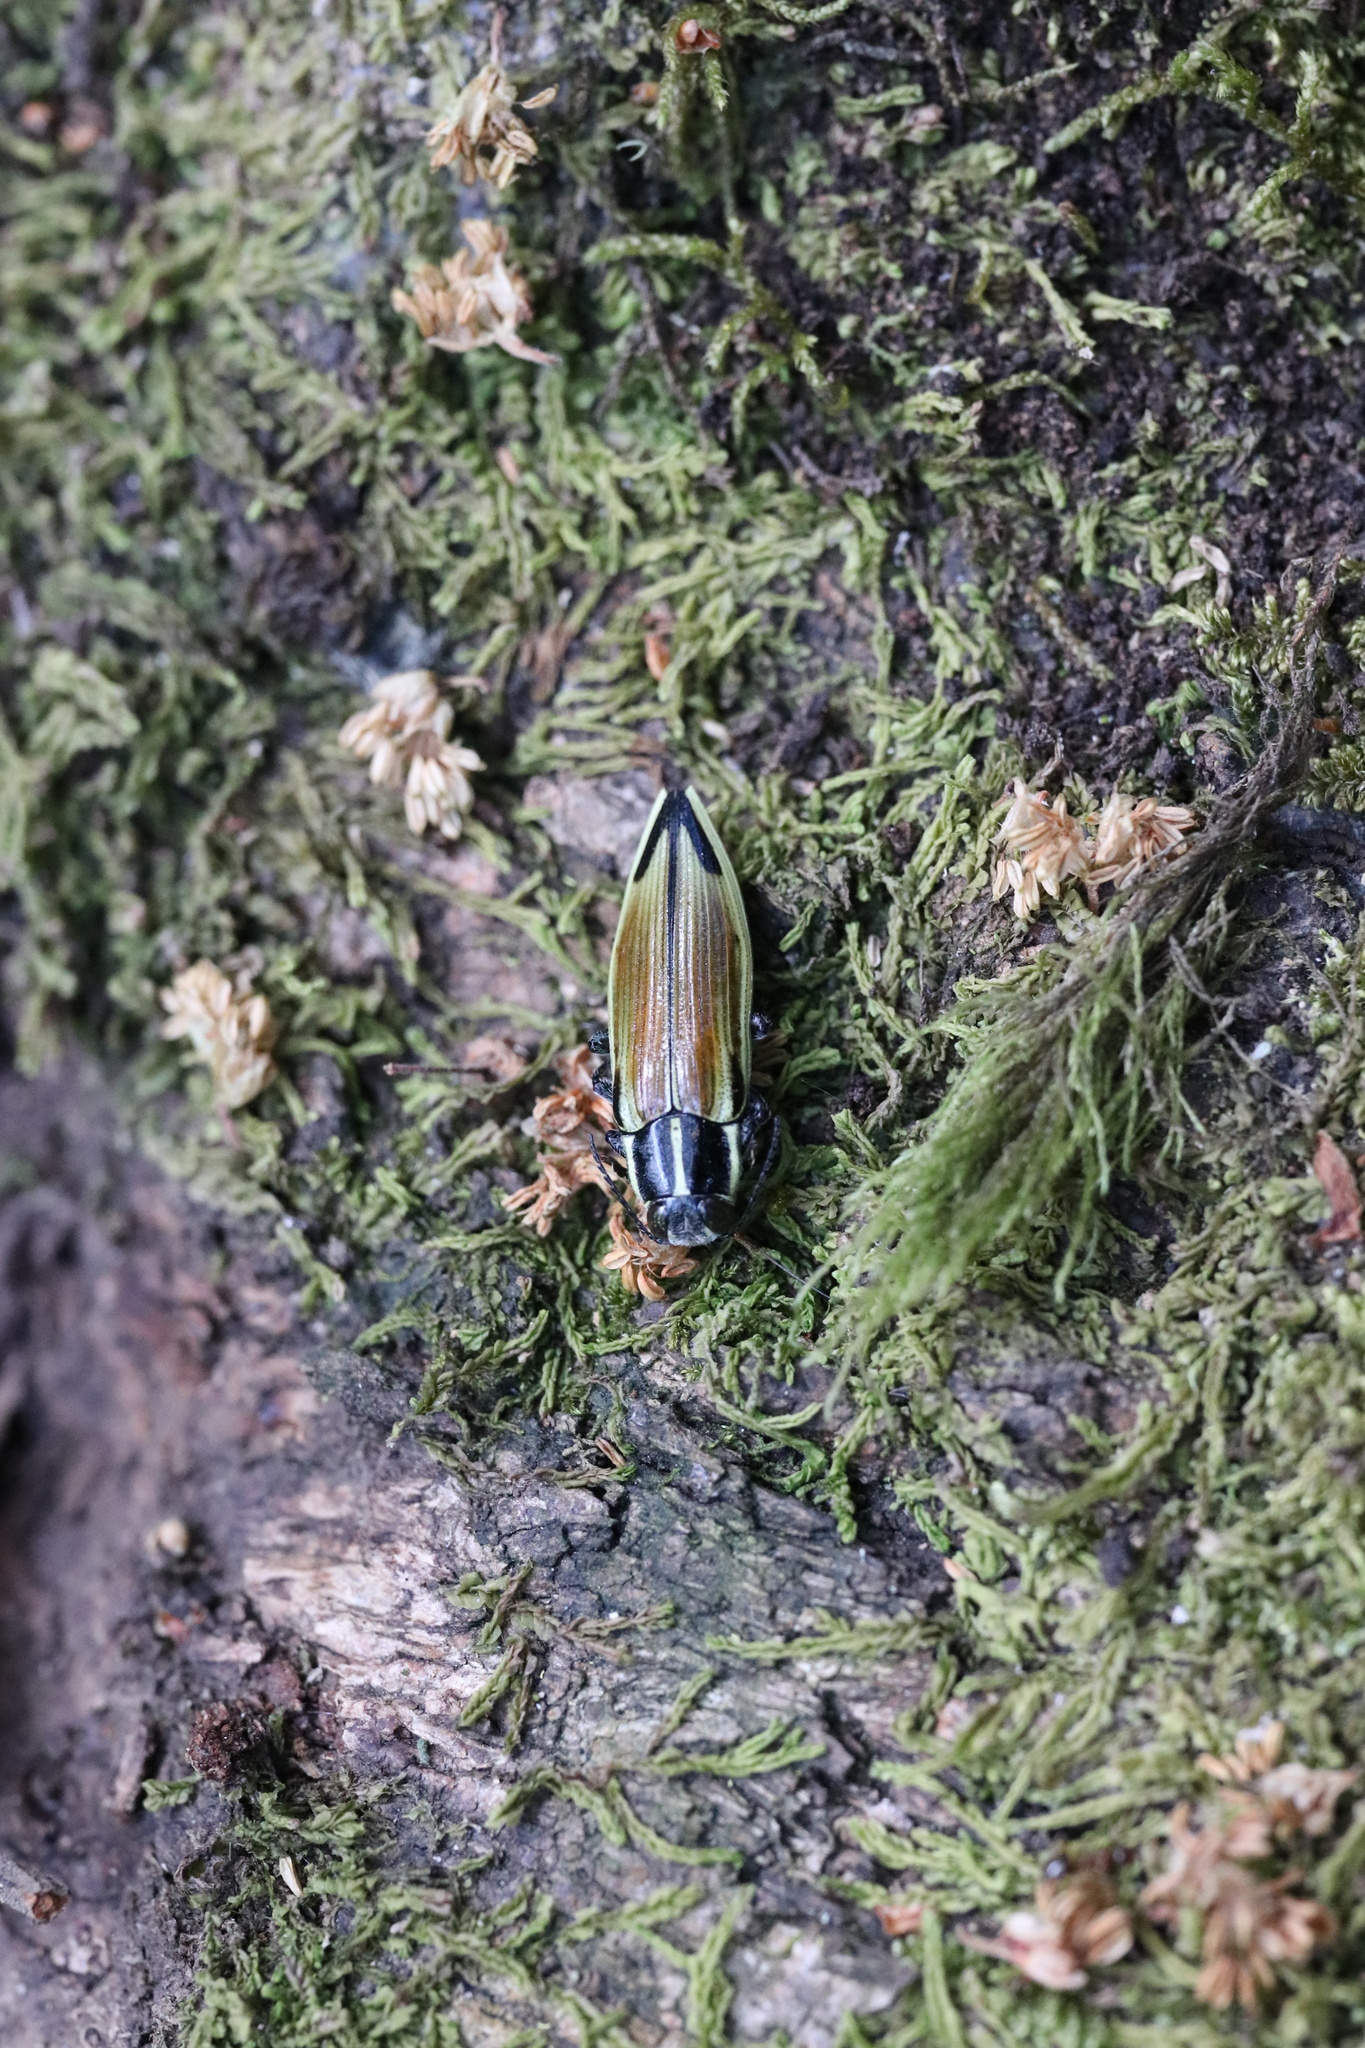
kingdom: Animalia
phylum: Arthropoda
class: Insecta
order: Coleoptera
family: Buprestidae
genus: Epistomentis
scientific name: Epistomentis pictus
